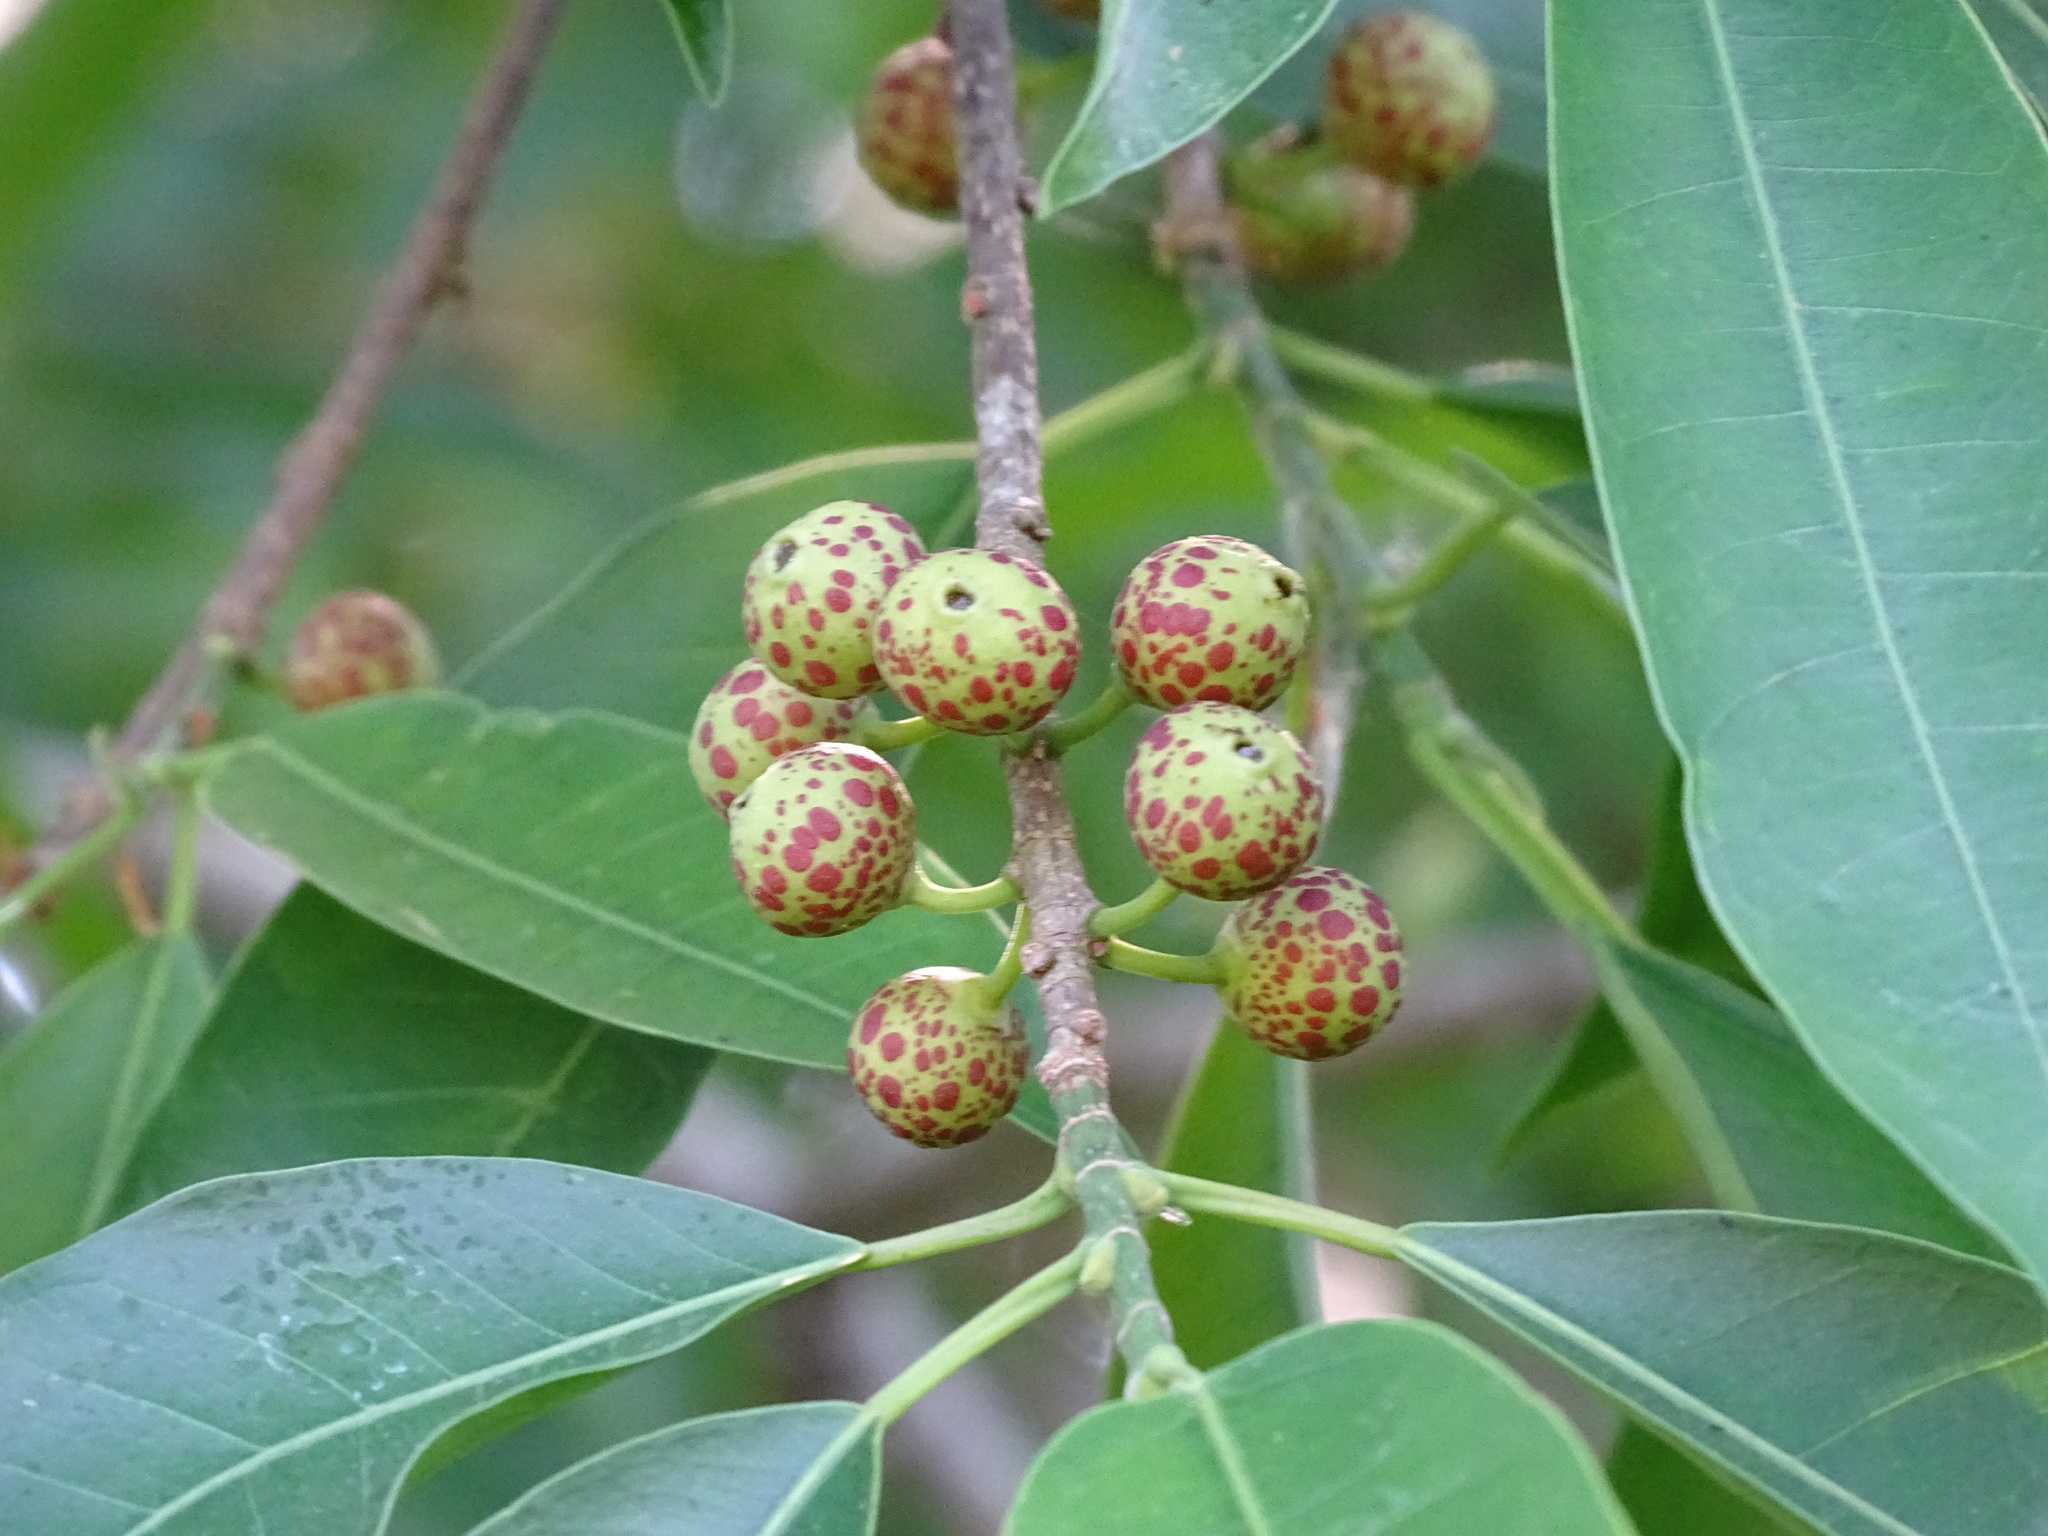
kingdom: Plantae
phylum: Tracheophyta
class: Magnoliopsida
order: Rosales
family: Moraceae
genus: Ficus
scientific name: Ficus pertusa
